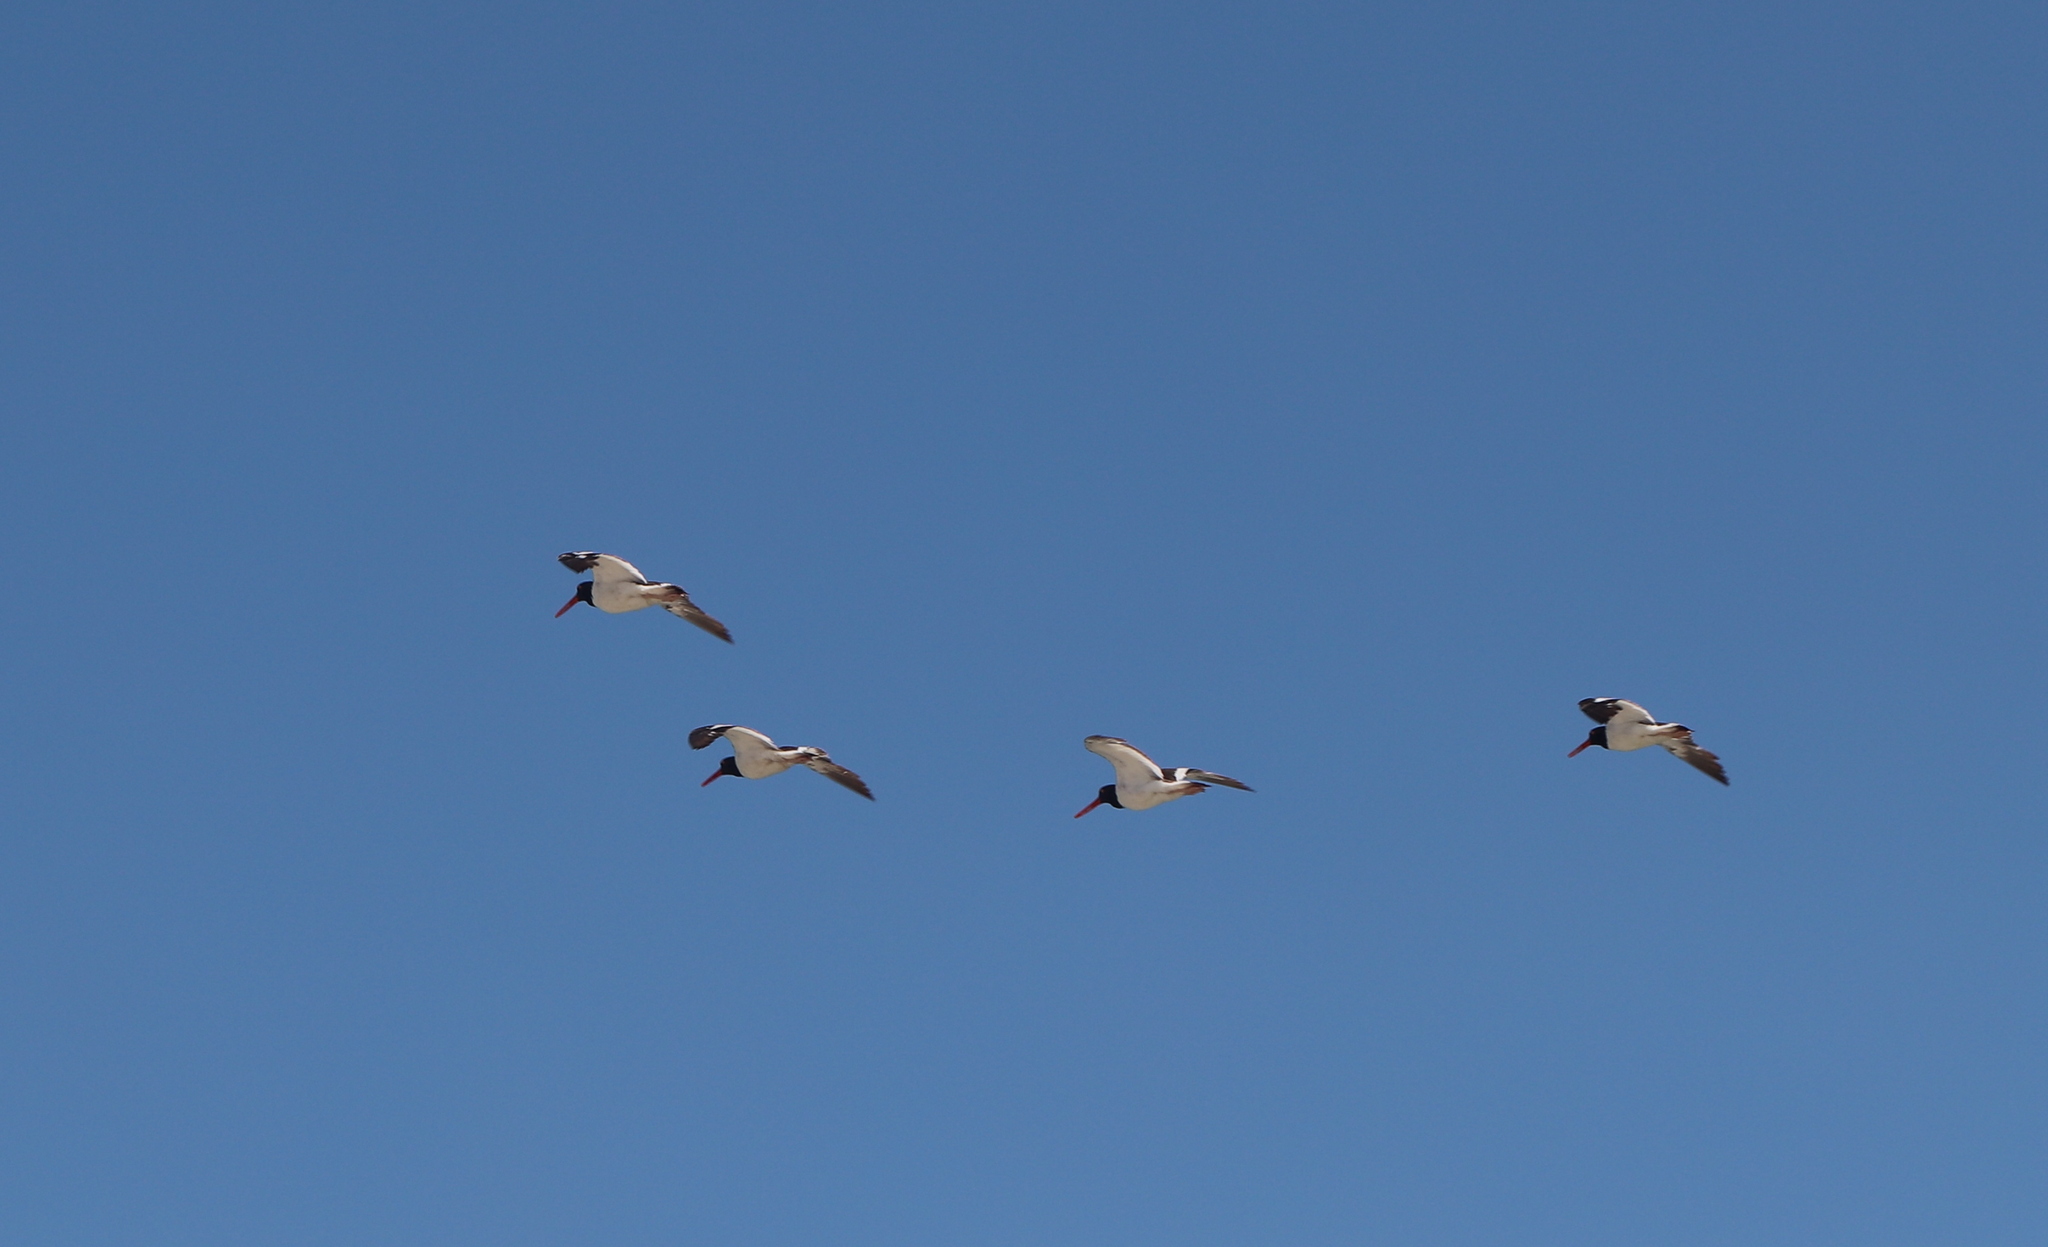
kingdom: Animalia
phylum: Chordata
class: Aves
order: Charadriiformes
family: Haematopodidae
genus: Haematopus
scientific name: Haematopus palliatus
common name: American oystercatcher
